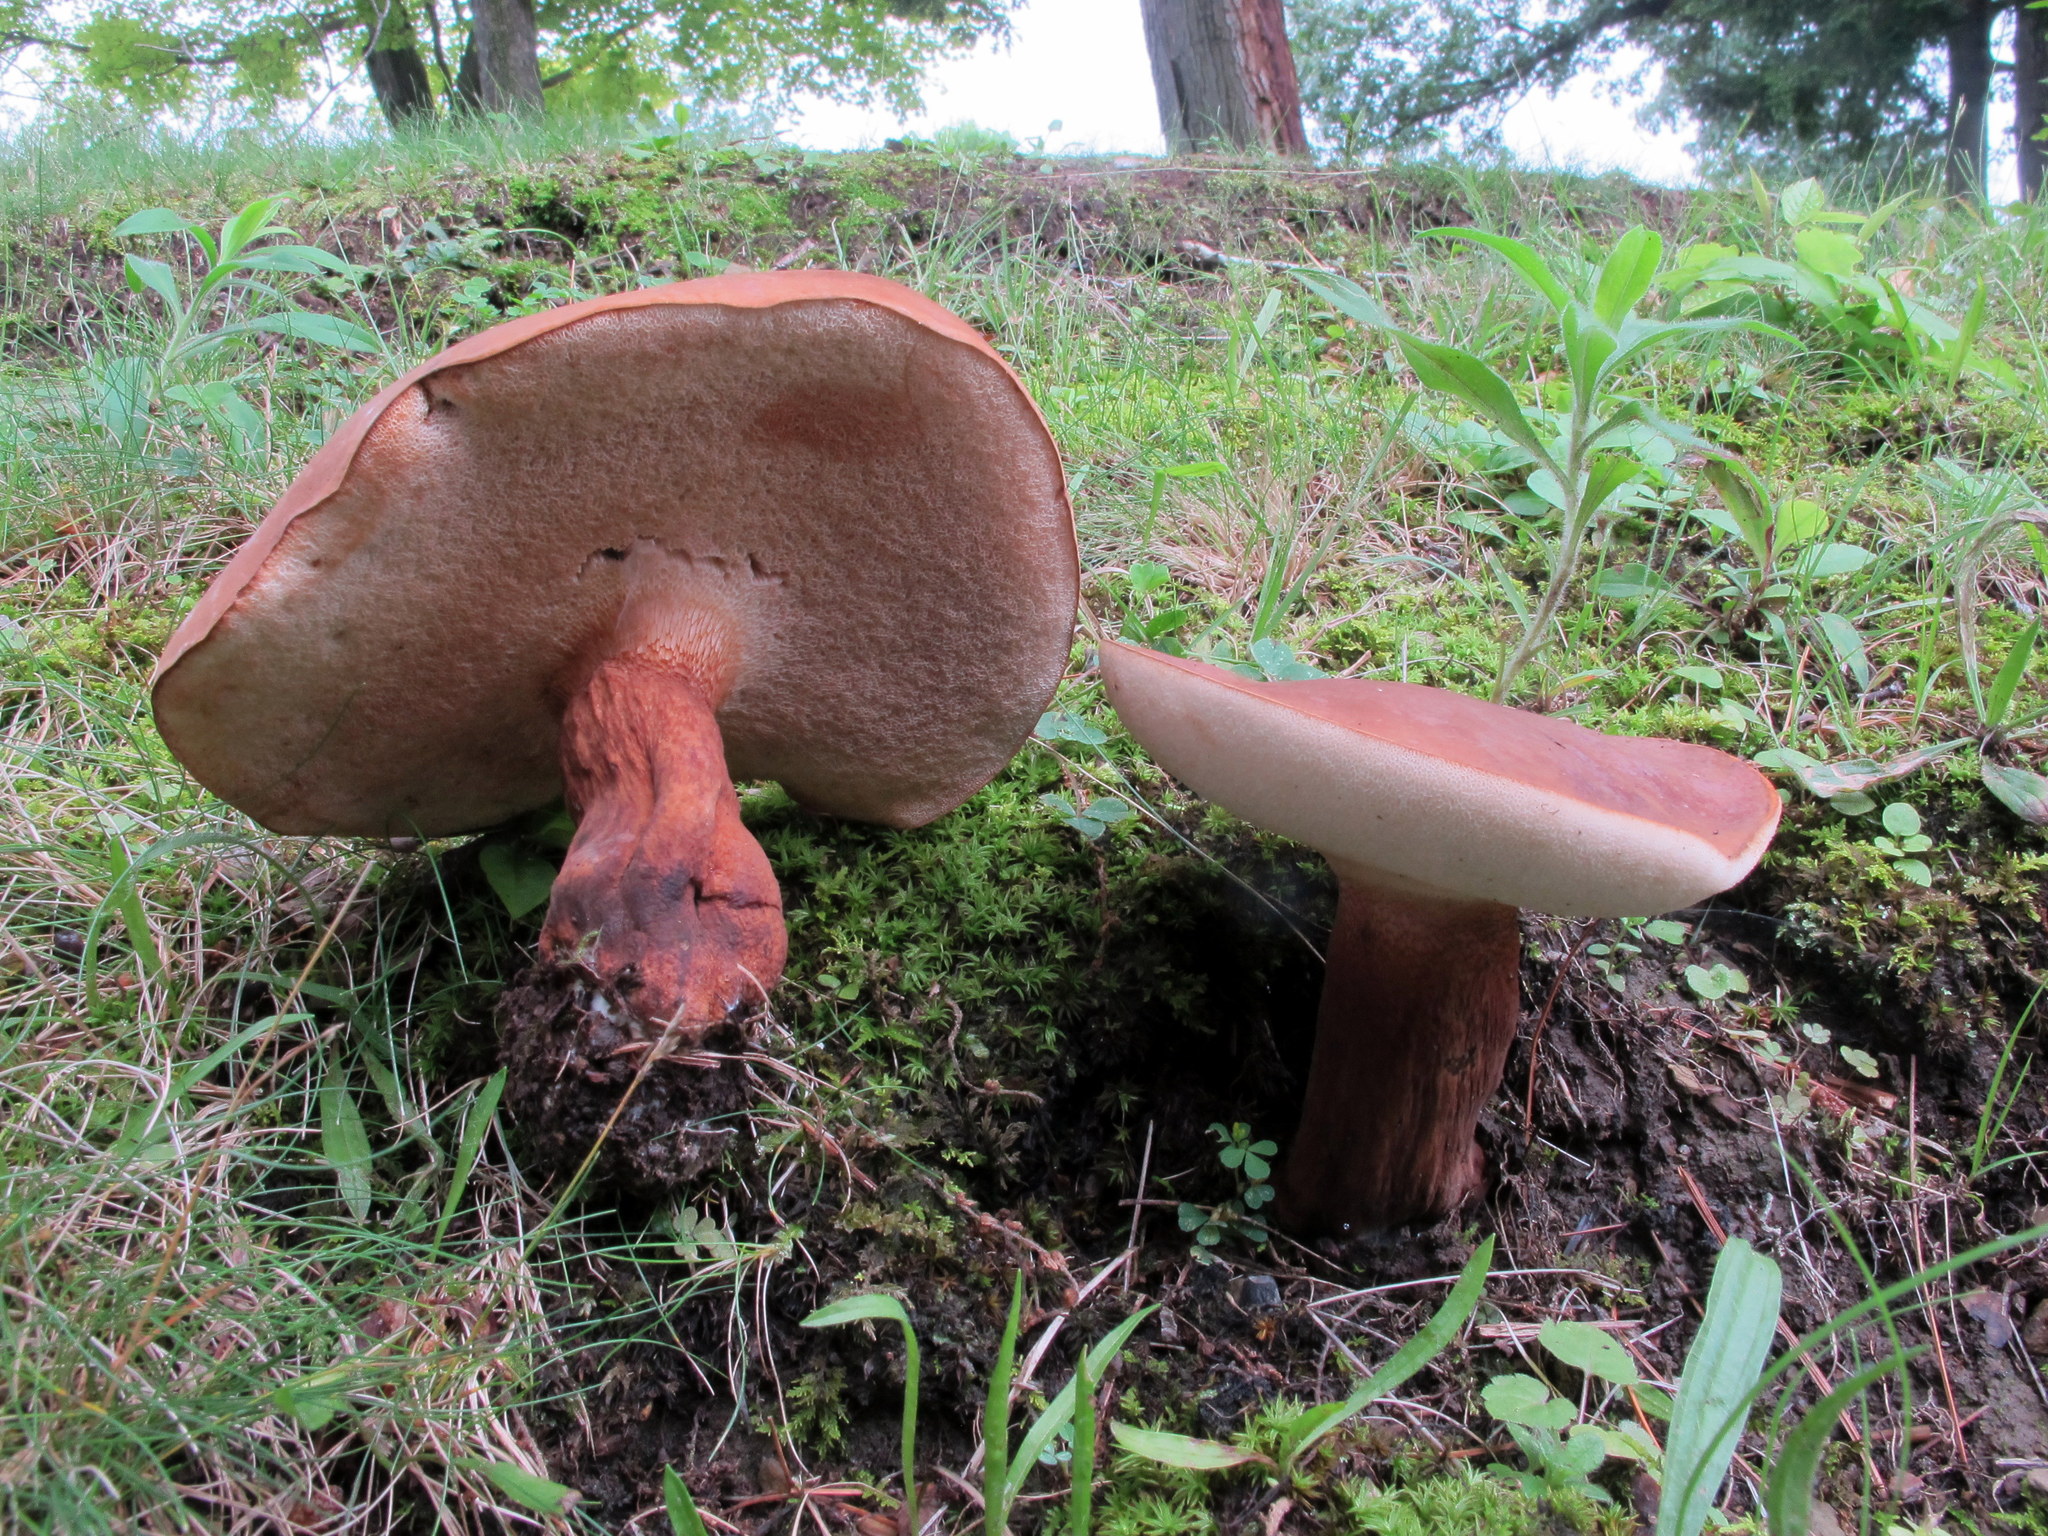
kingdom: Fungi
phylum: Basidiomycota
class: Agaricomycetes
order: Boletales
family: Boletaceae
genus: Tylopilus
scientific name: Tylopilus ferrugineus
